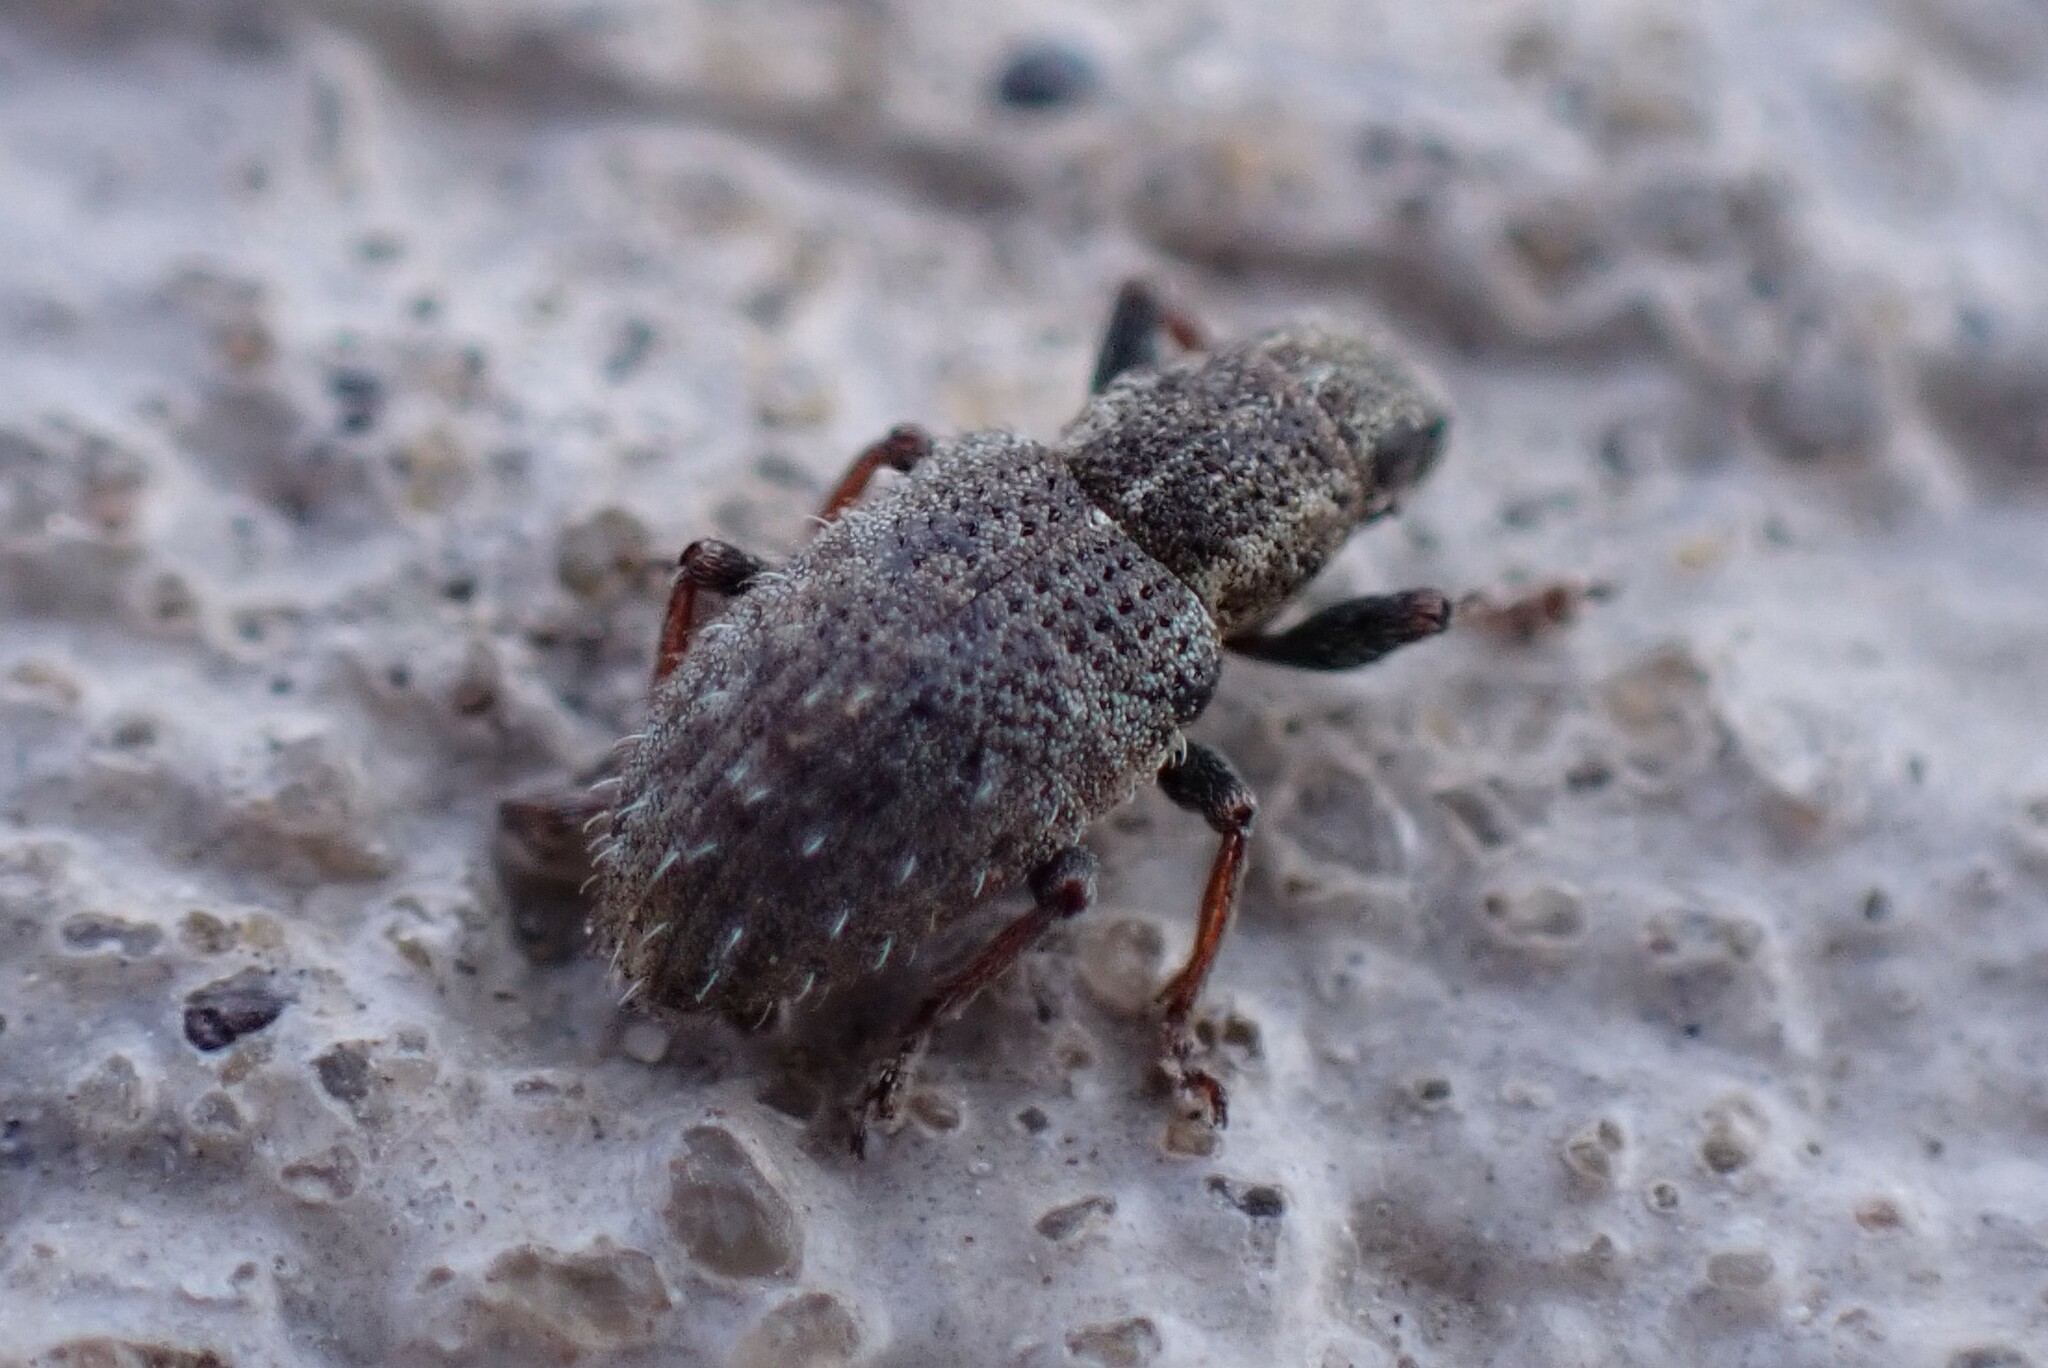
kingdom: Animalia
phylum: Arthropoda
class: Insecta
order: Coleoptera
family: Curculionidae
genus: Sitona
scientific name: Sitona hispidulus
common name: Clover weevil
